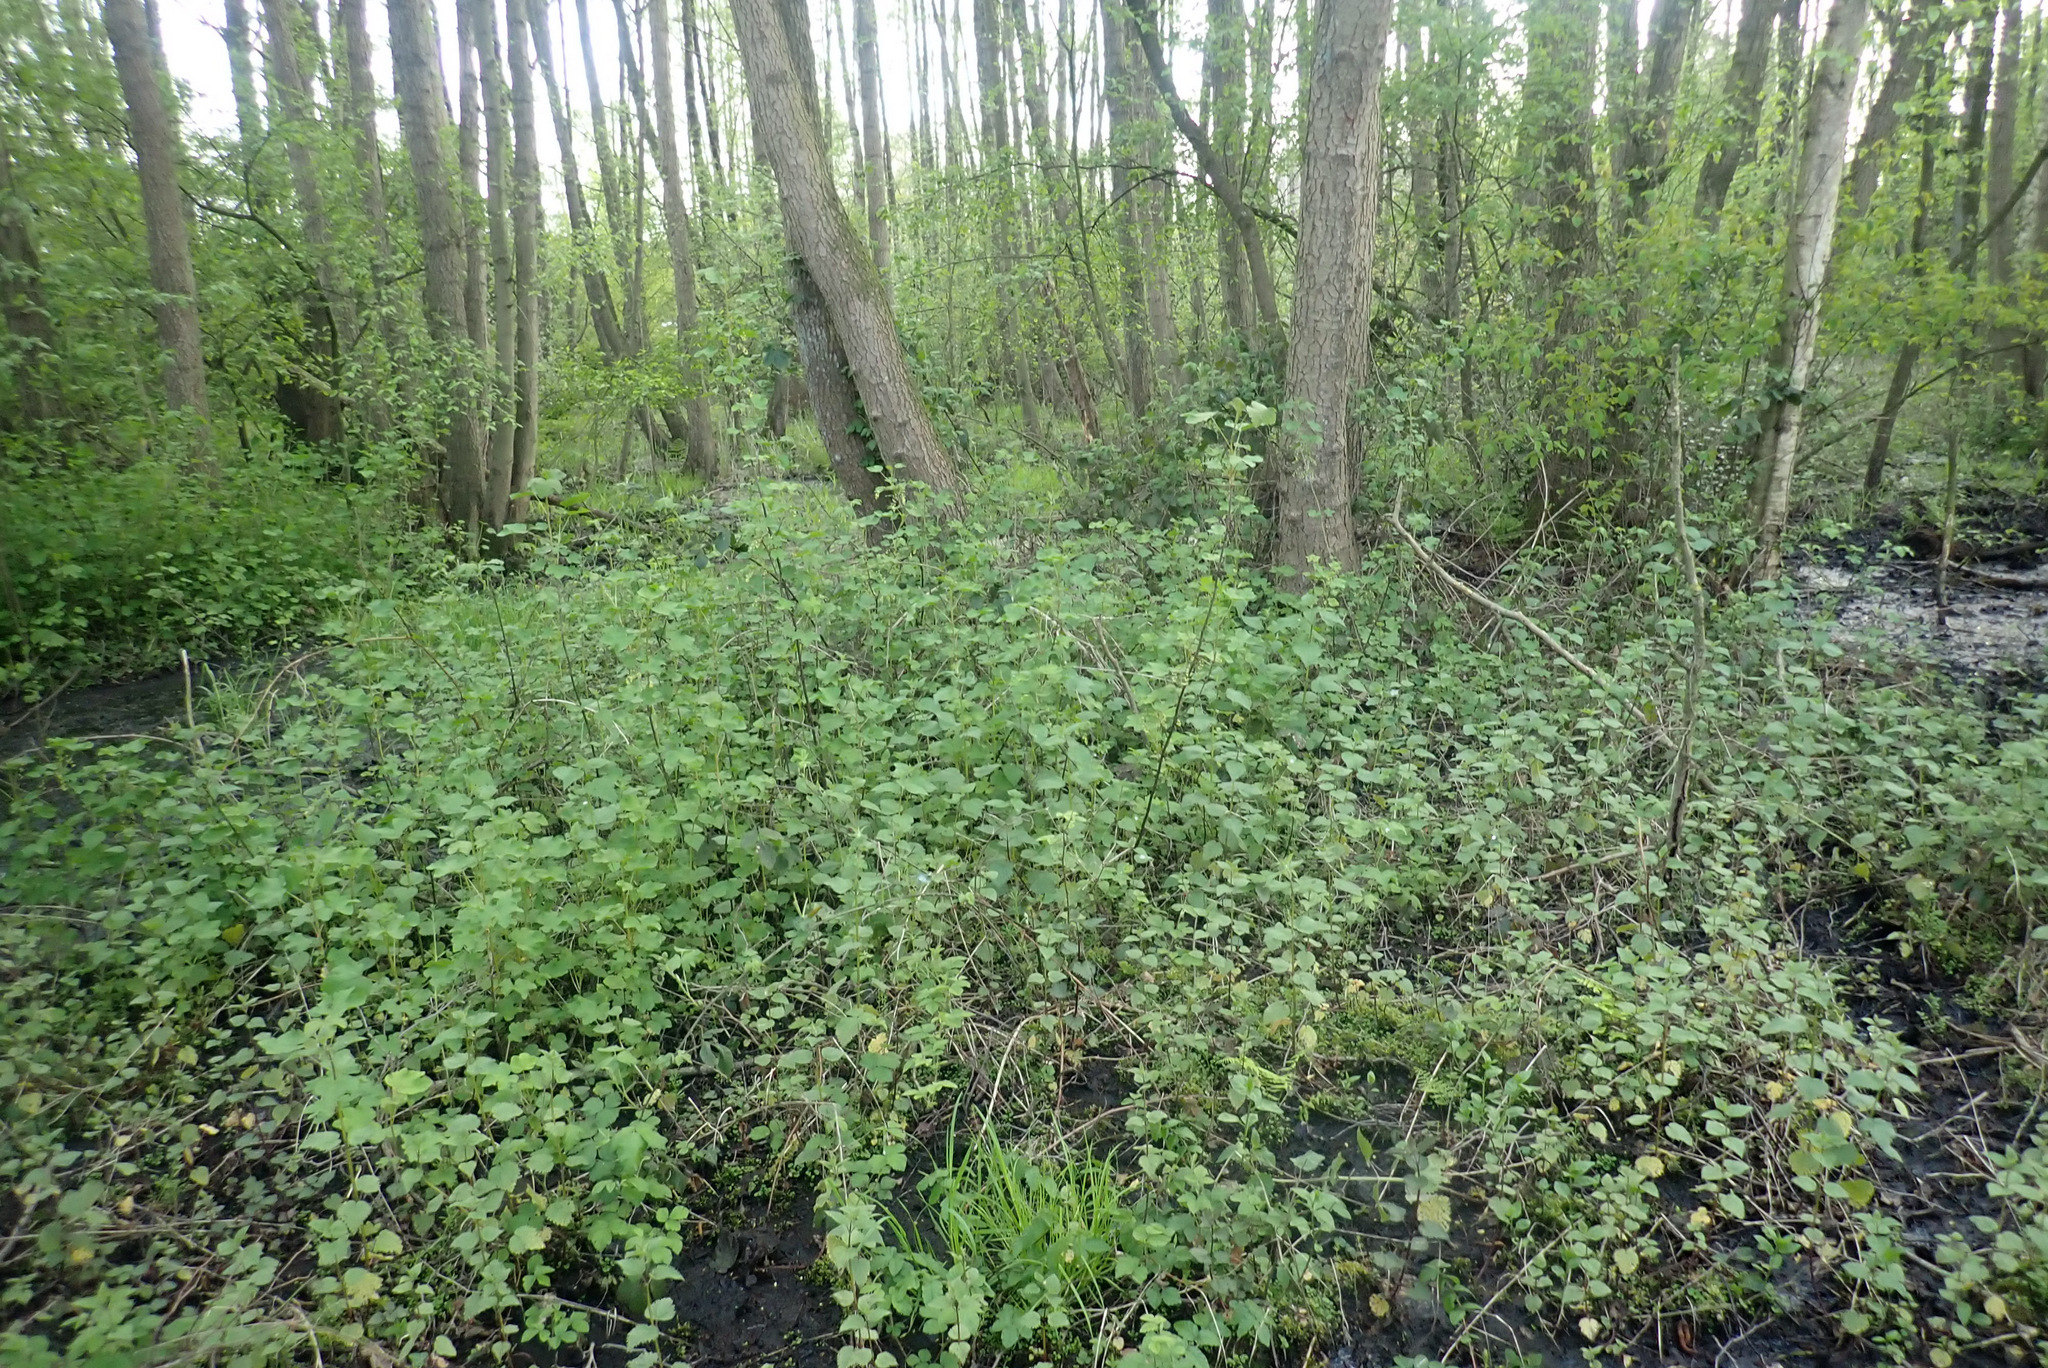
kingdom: Plantae
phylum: Tracheophyta
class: Magnoliopsida
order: Saxifragales
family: Grossulariaceae
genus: Ribes
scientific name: Ribes rubrum
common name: Red currant
